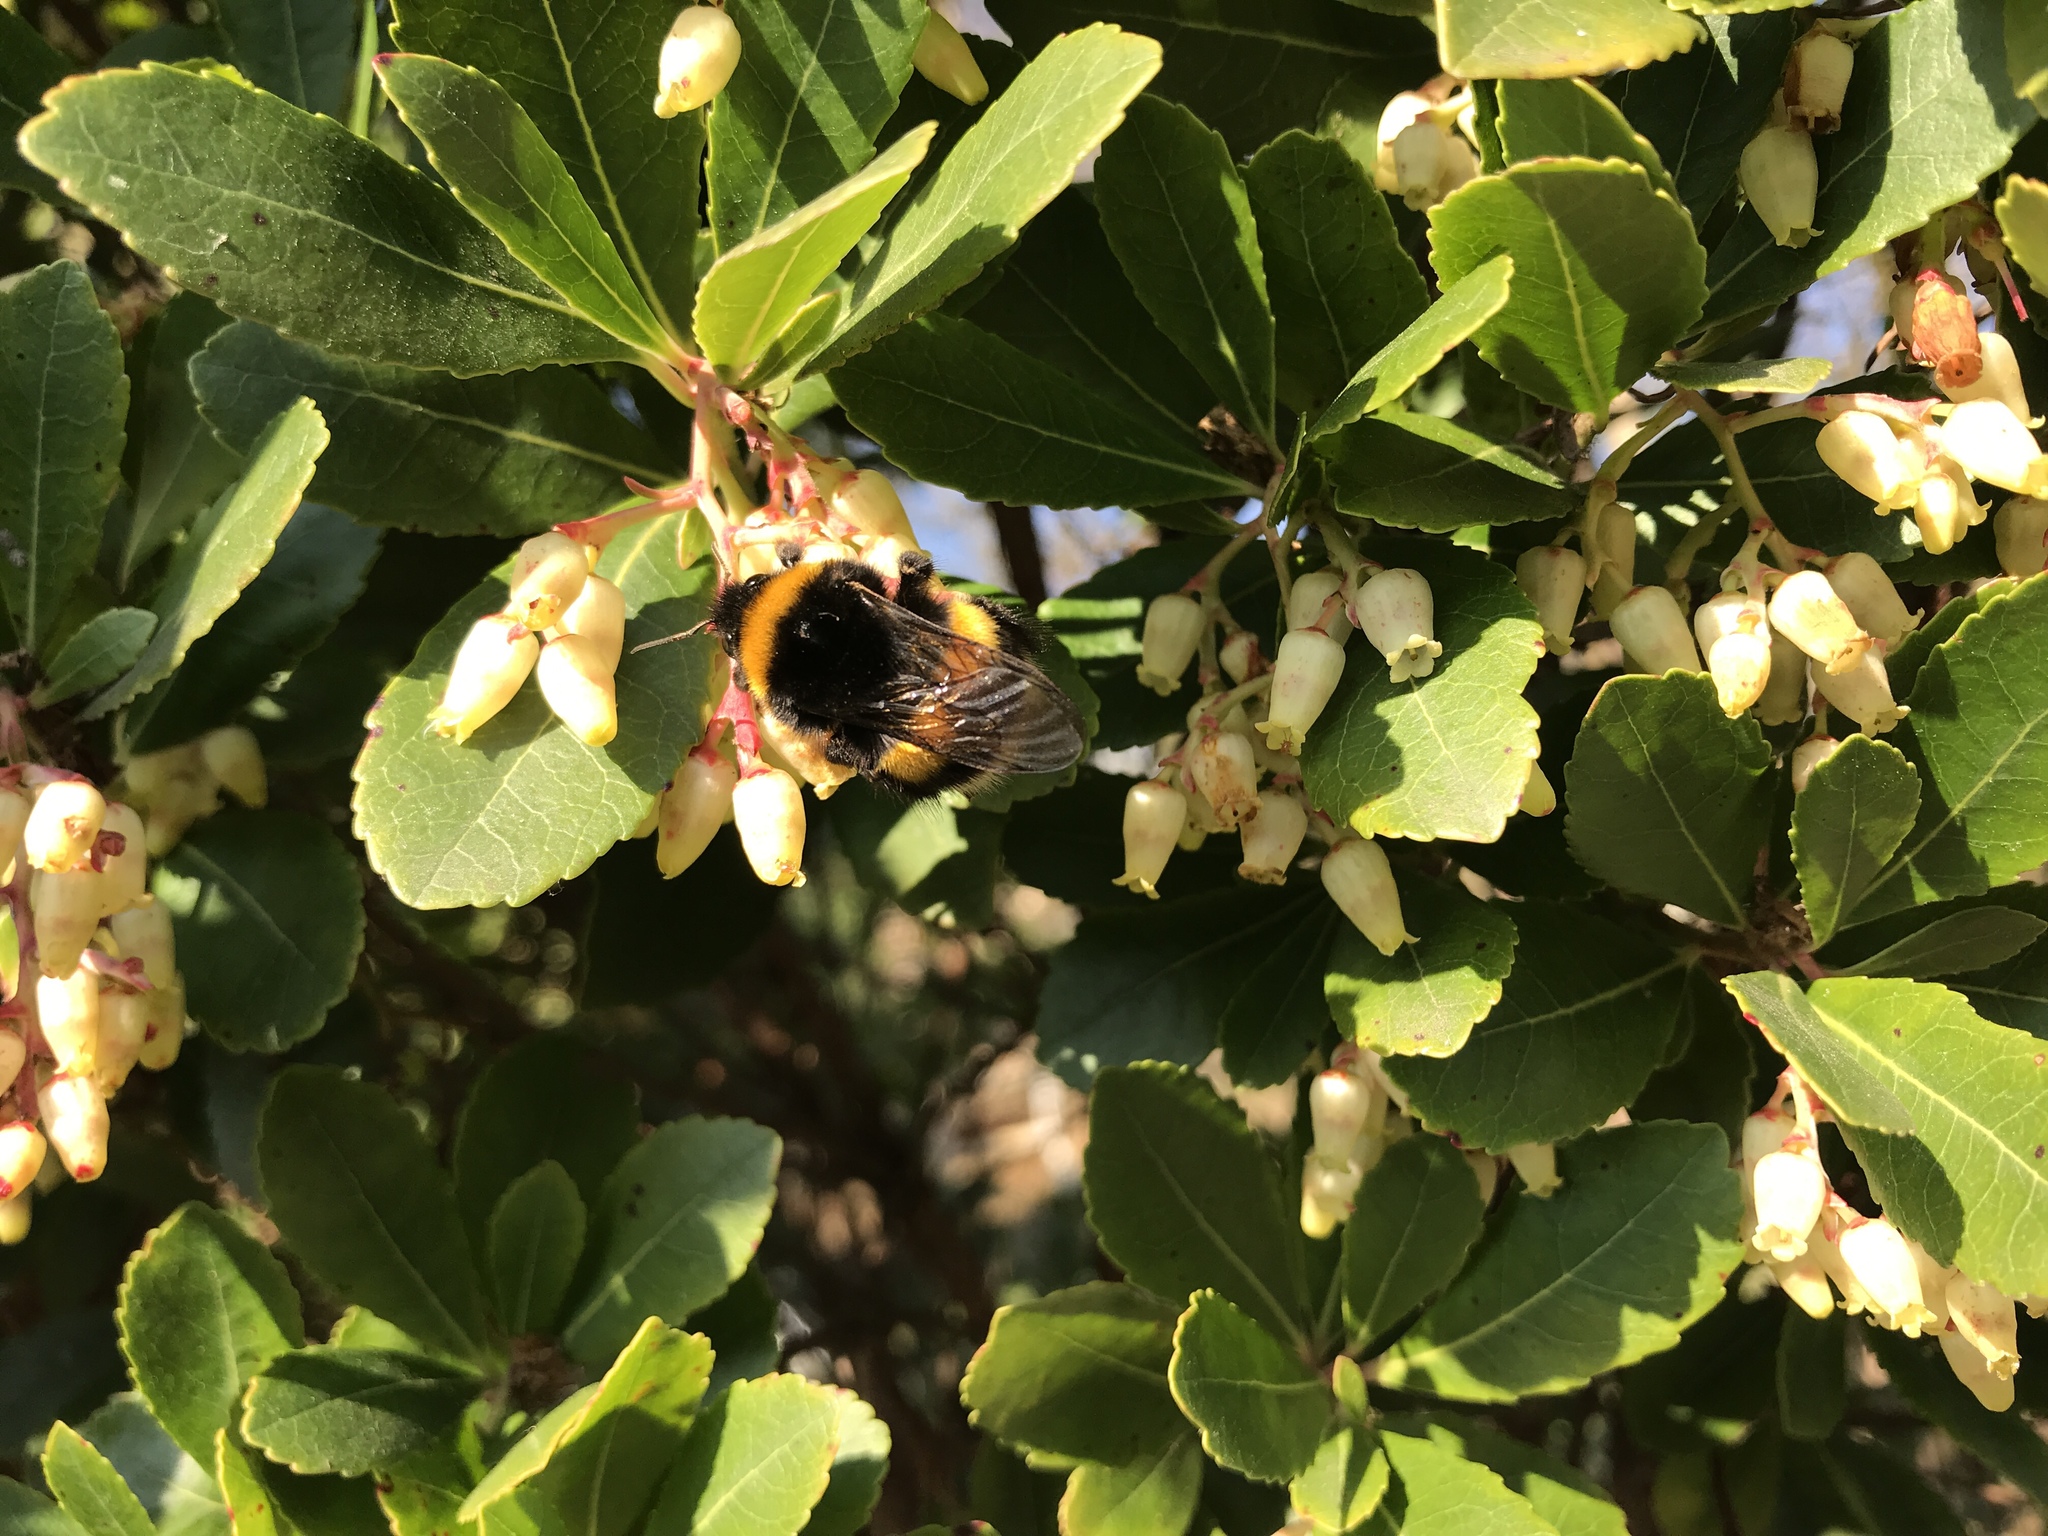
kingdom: Plantae
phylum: Tracheophyta
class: Magnoliopsida
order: Ericales
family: Ericaceae
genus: Arbutus
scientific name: Arbutus unedo
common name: Strawberry-tree
